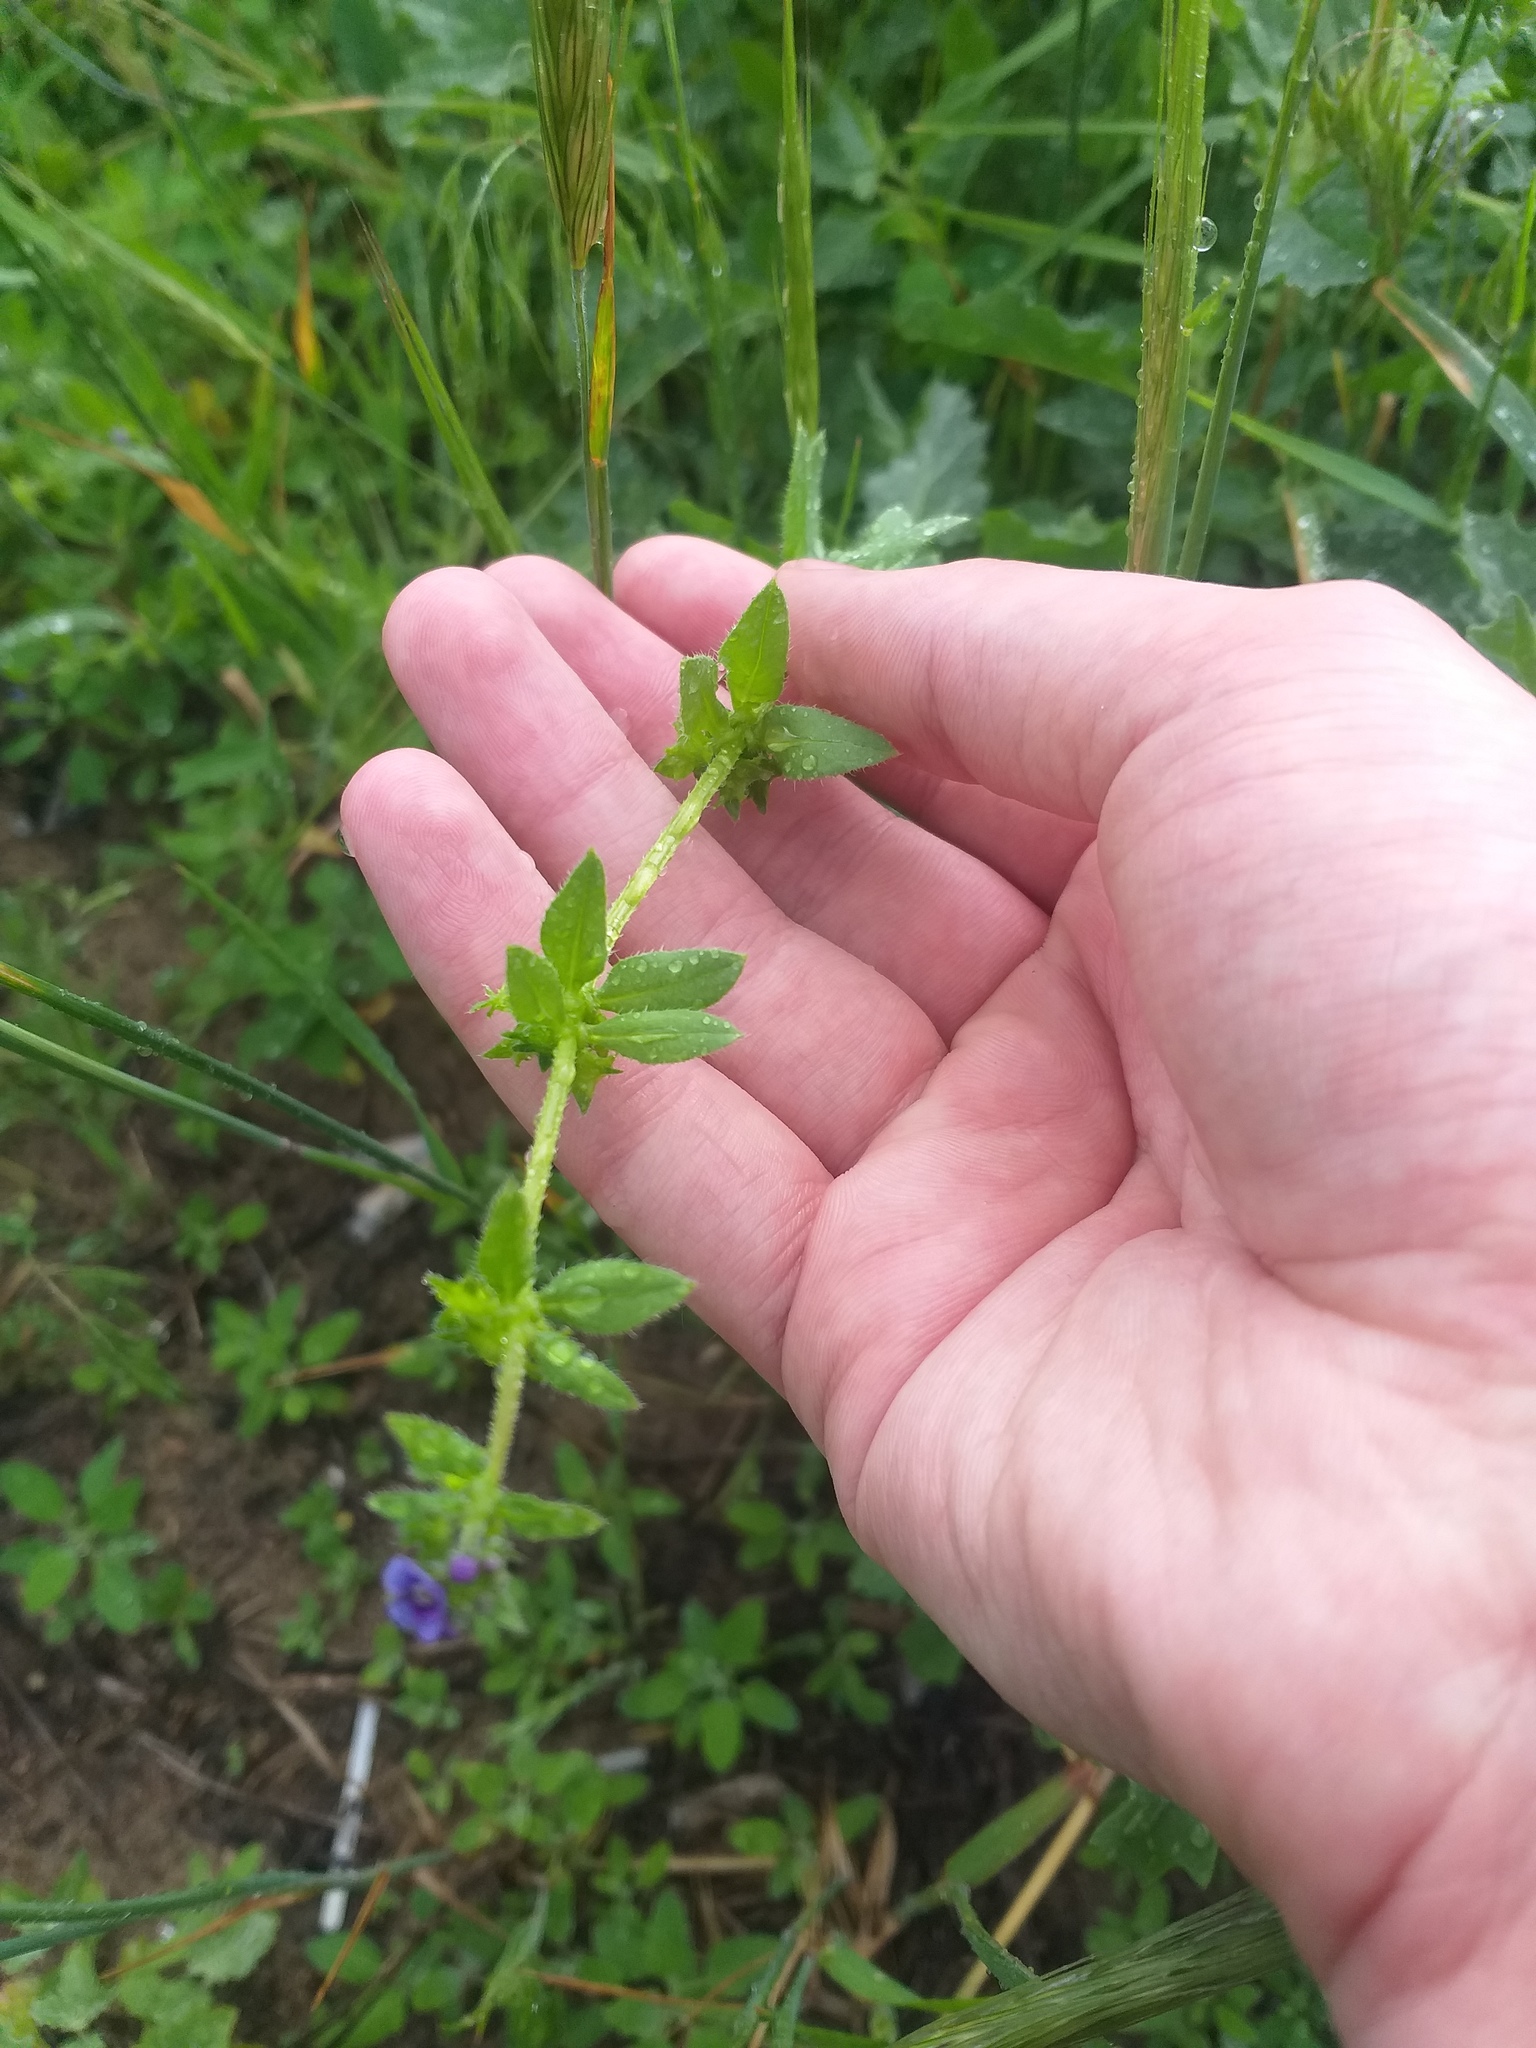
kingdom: Plantae
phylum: Tracheophyta
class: Magnoliopsida
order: Boraginales
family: Boraginaceae
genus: Asperugo
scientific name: Asperugo procumbens
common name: Madwort
